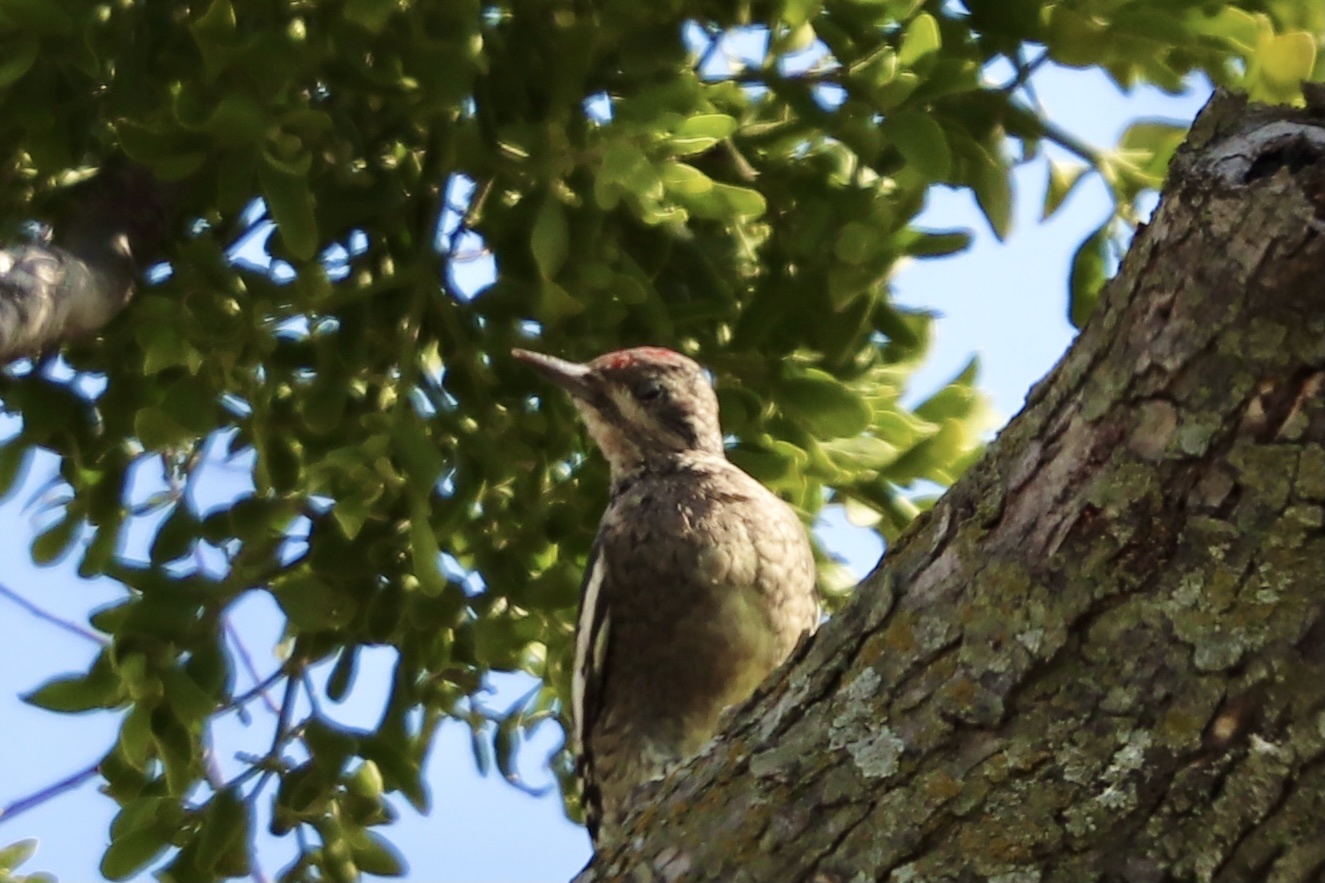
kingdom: Animalia
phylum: Chordata
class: Aves
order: Piciformes
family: Picidae
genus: Sphyrapicus
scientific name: Sphyrapicus varius
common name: Yellow-bellied sapsucker
